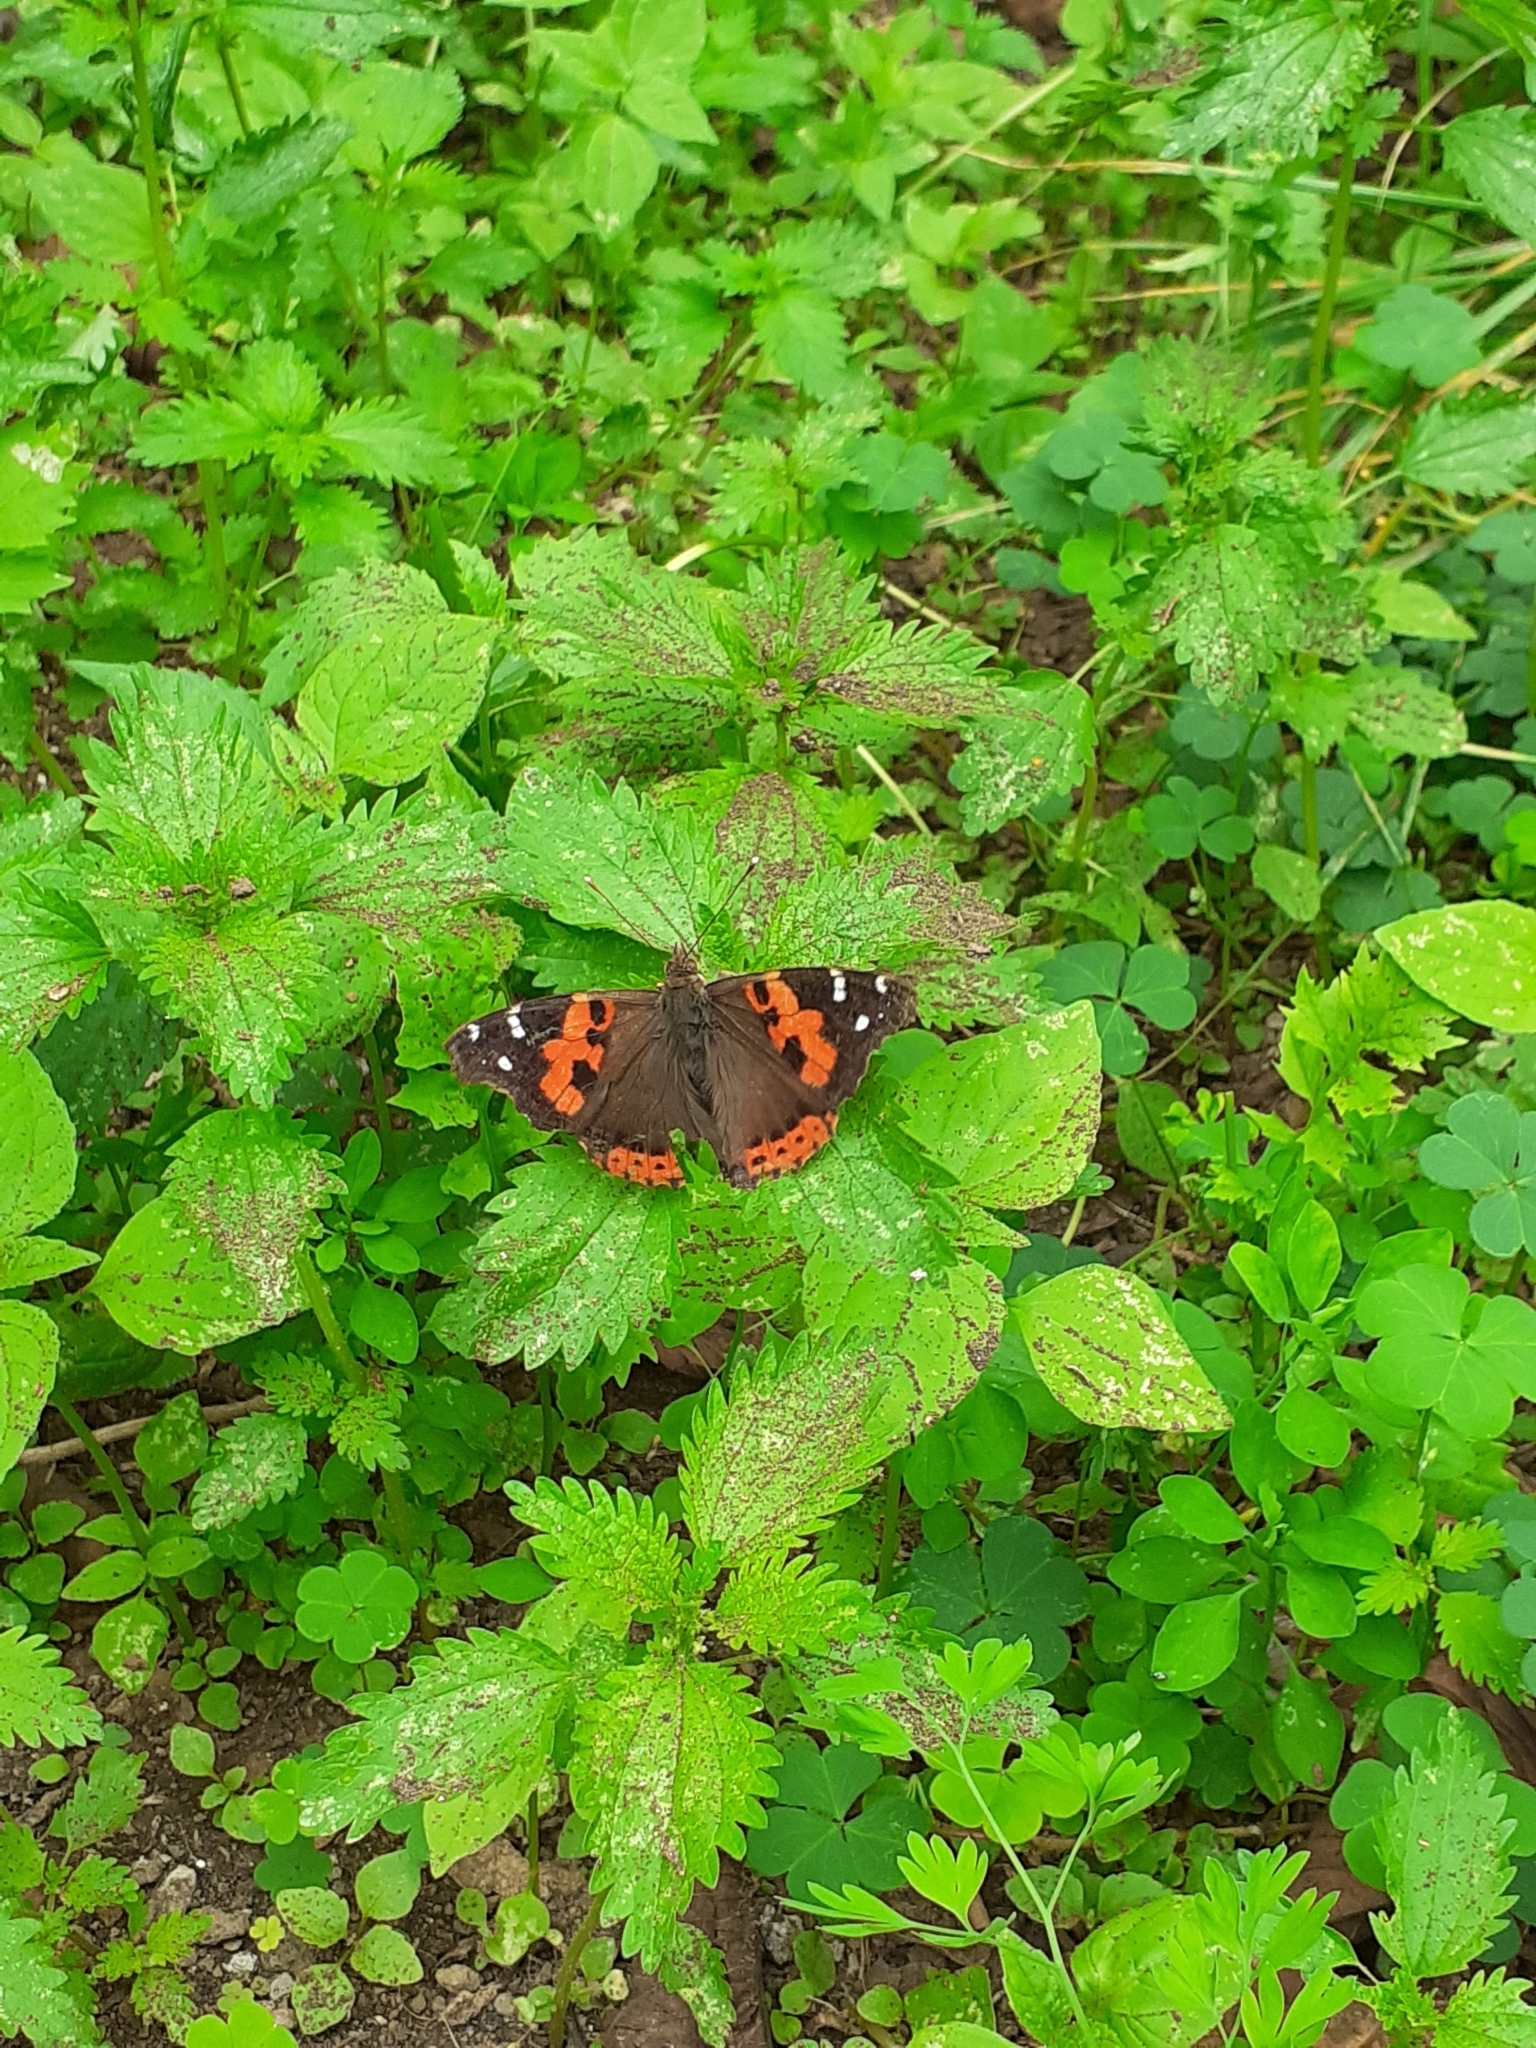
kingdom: Animalia
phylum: Arthropoda
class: Insecta
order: Lepidoptera
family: Nymphalidae
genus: Vanessa
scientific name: Vanessa vulcania
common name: Canary red admiral
